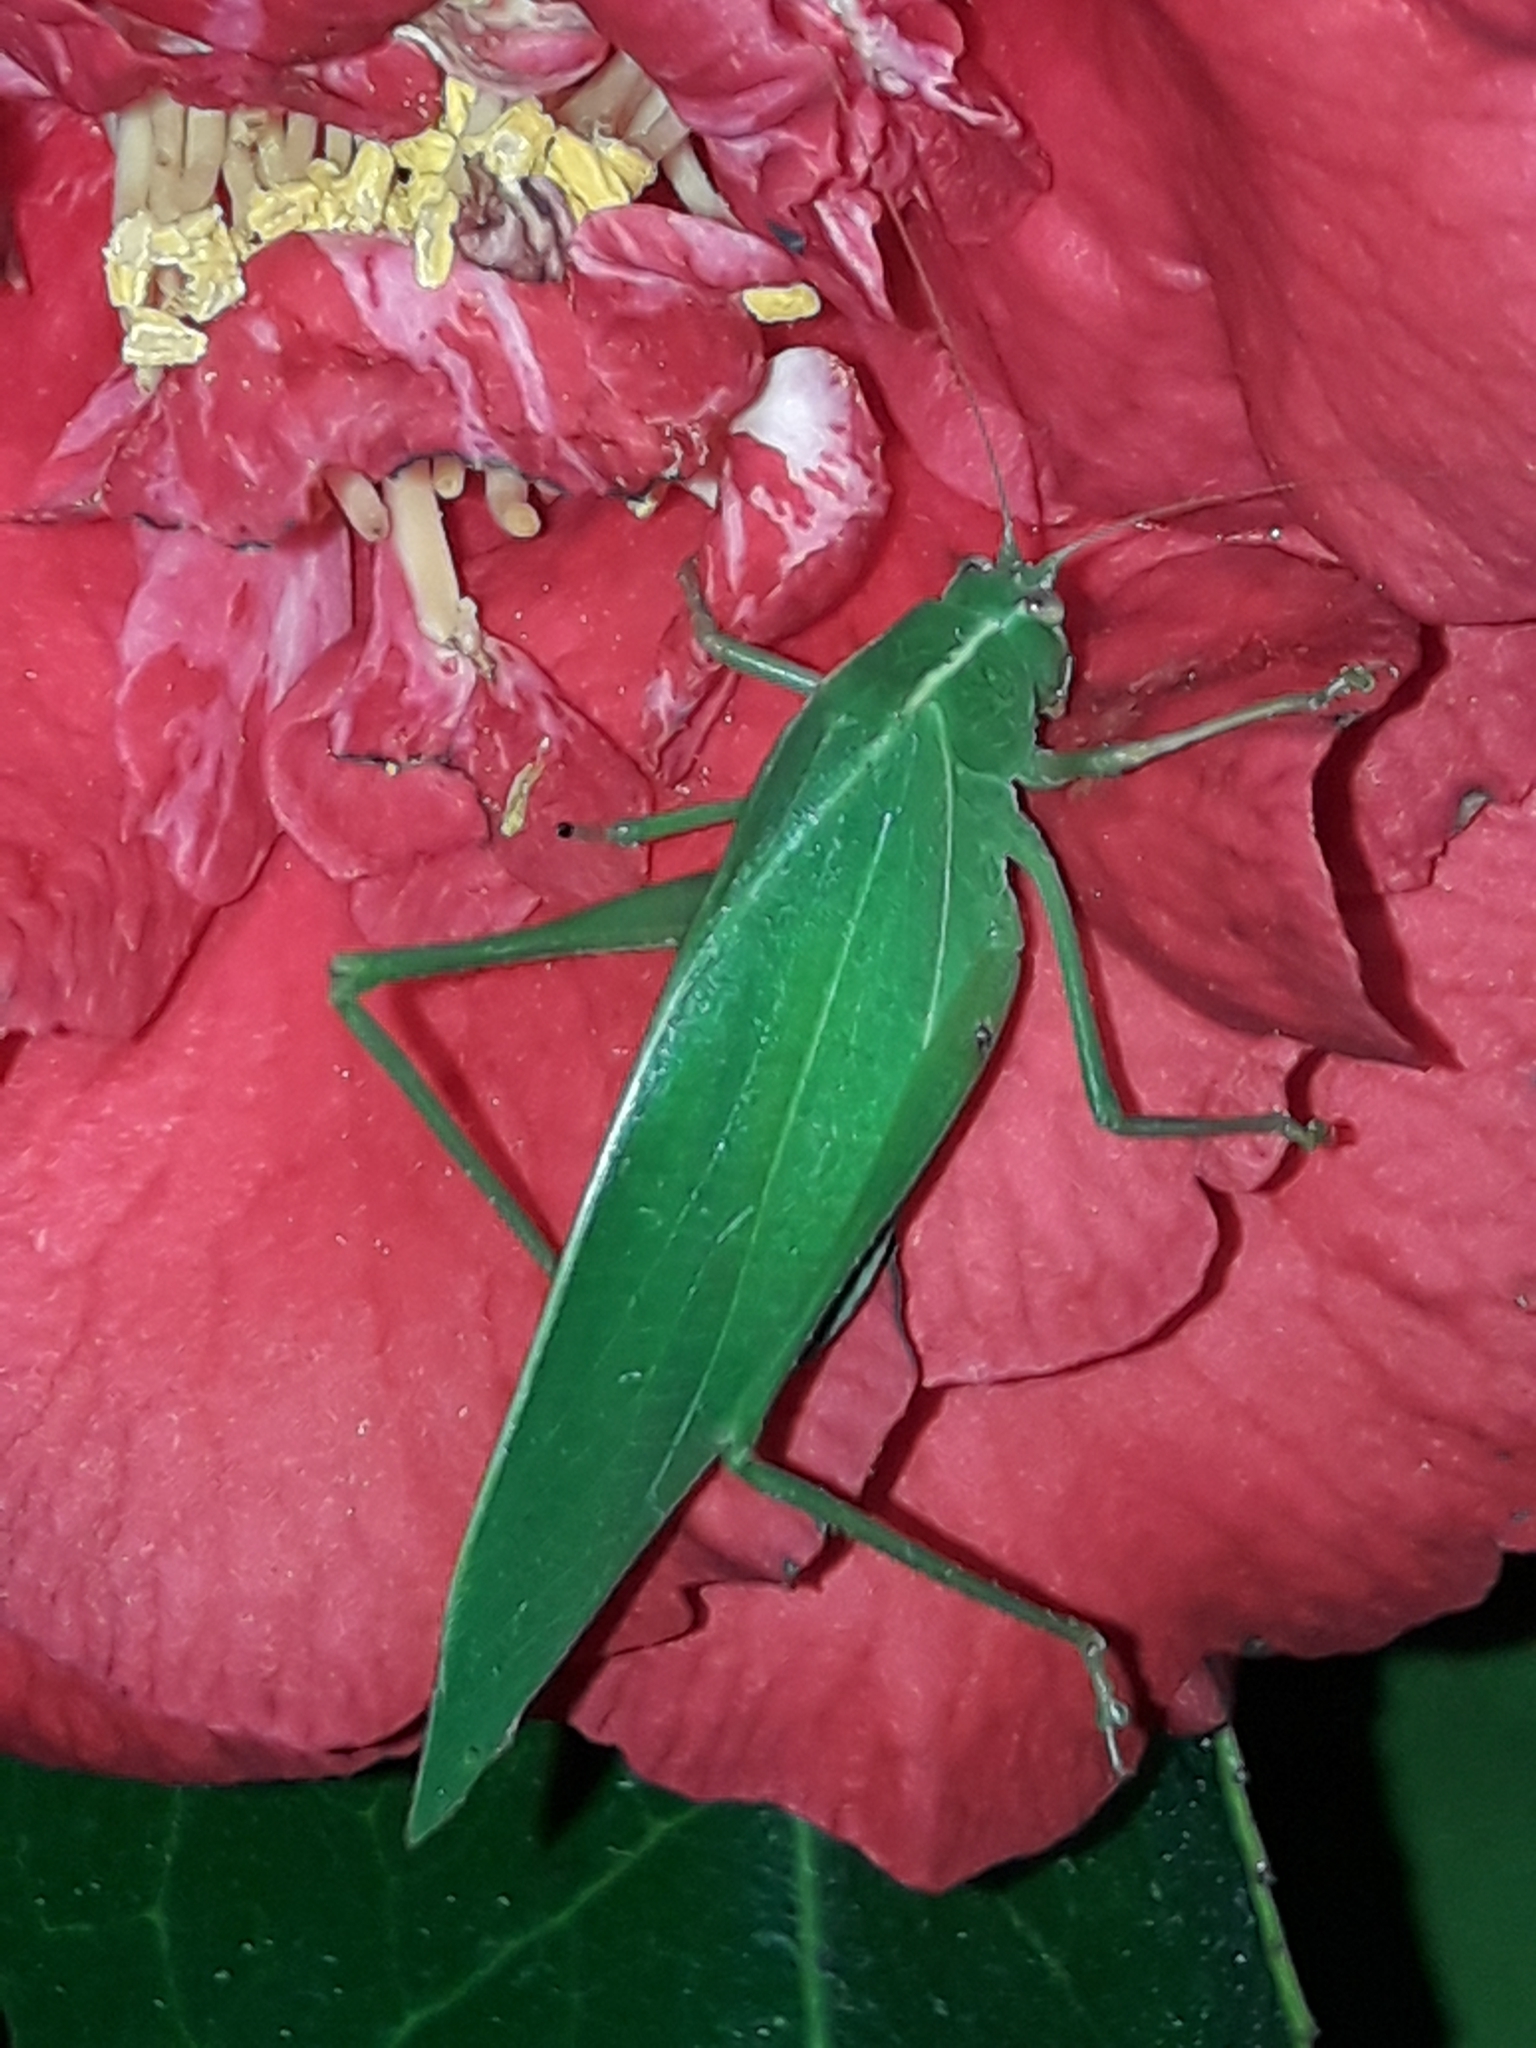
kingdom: Animalia
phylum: Arthropoda
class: Insecta
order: Orthoptera
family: Tettigoniidae
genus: Caedicia
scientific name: Caedicia simplex
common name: Common garden katydid
